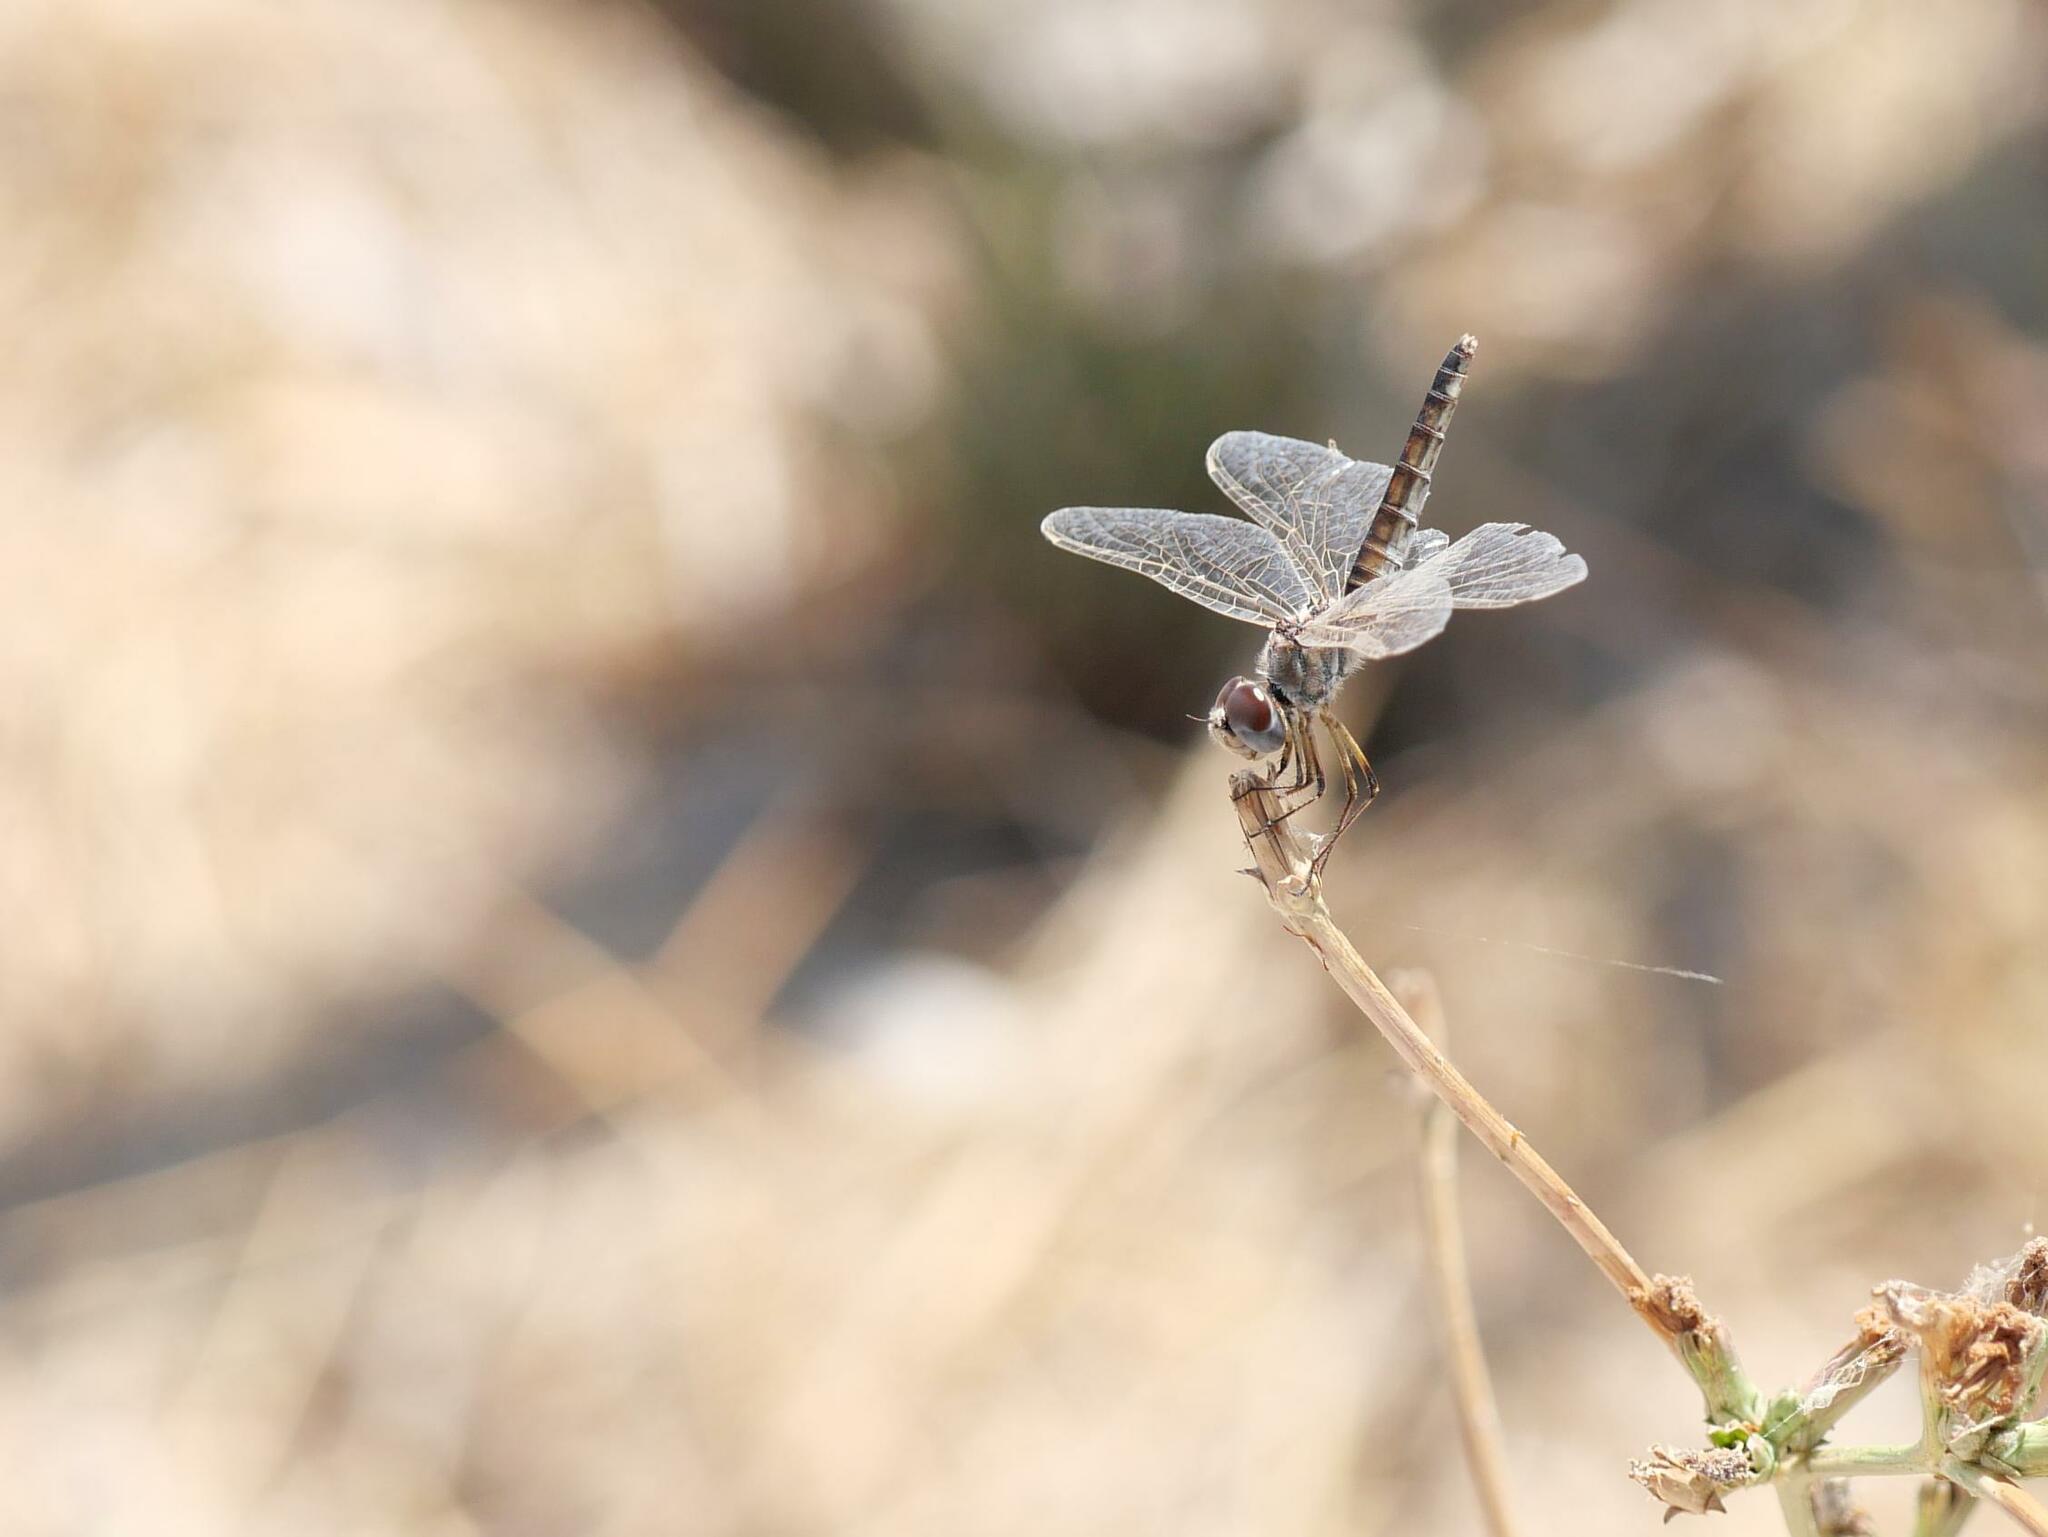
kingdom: Animalia
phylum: Arthropoda
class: Insecta
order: Odonata
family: Libellulidae
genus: Selysiothemis
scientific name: Selysiothemis nigra
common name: Black pennant
